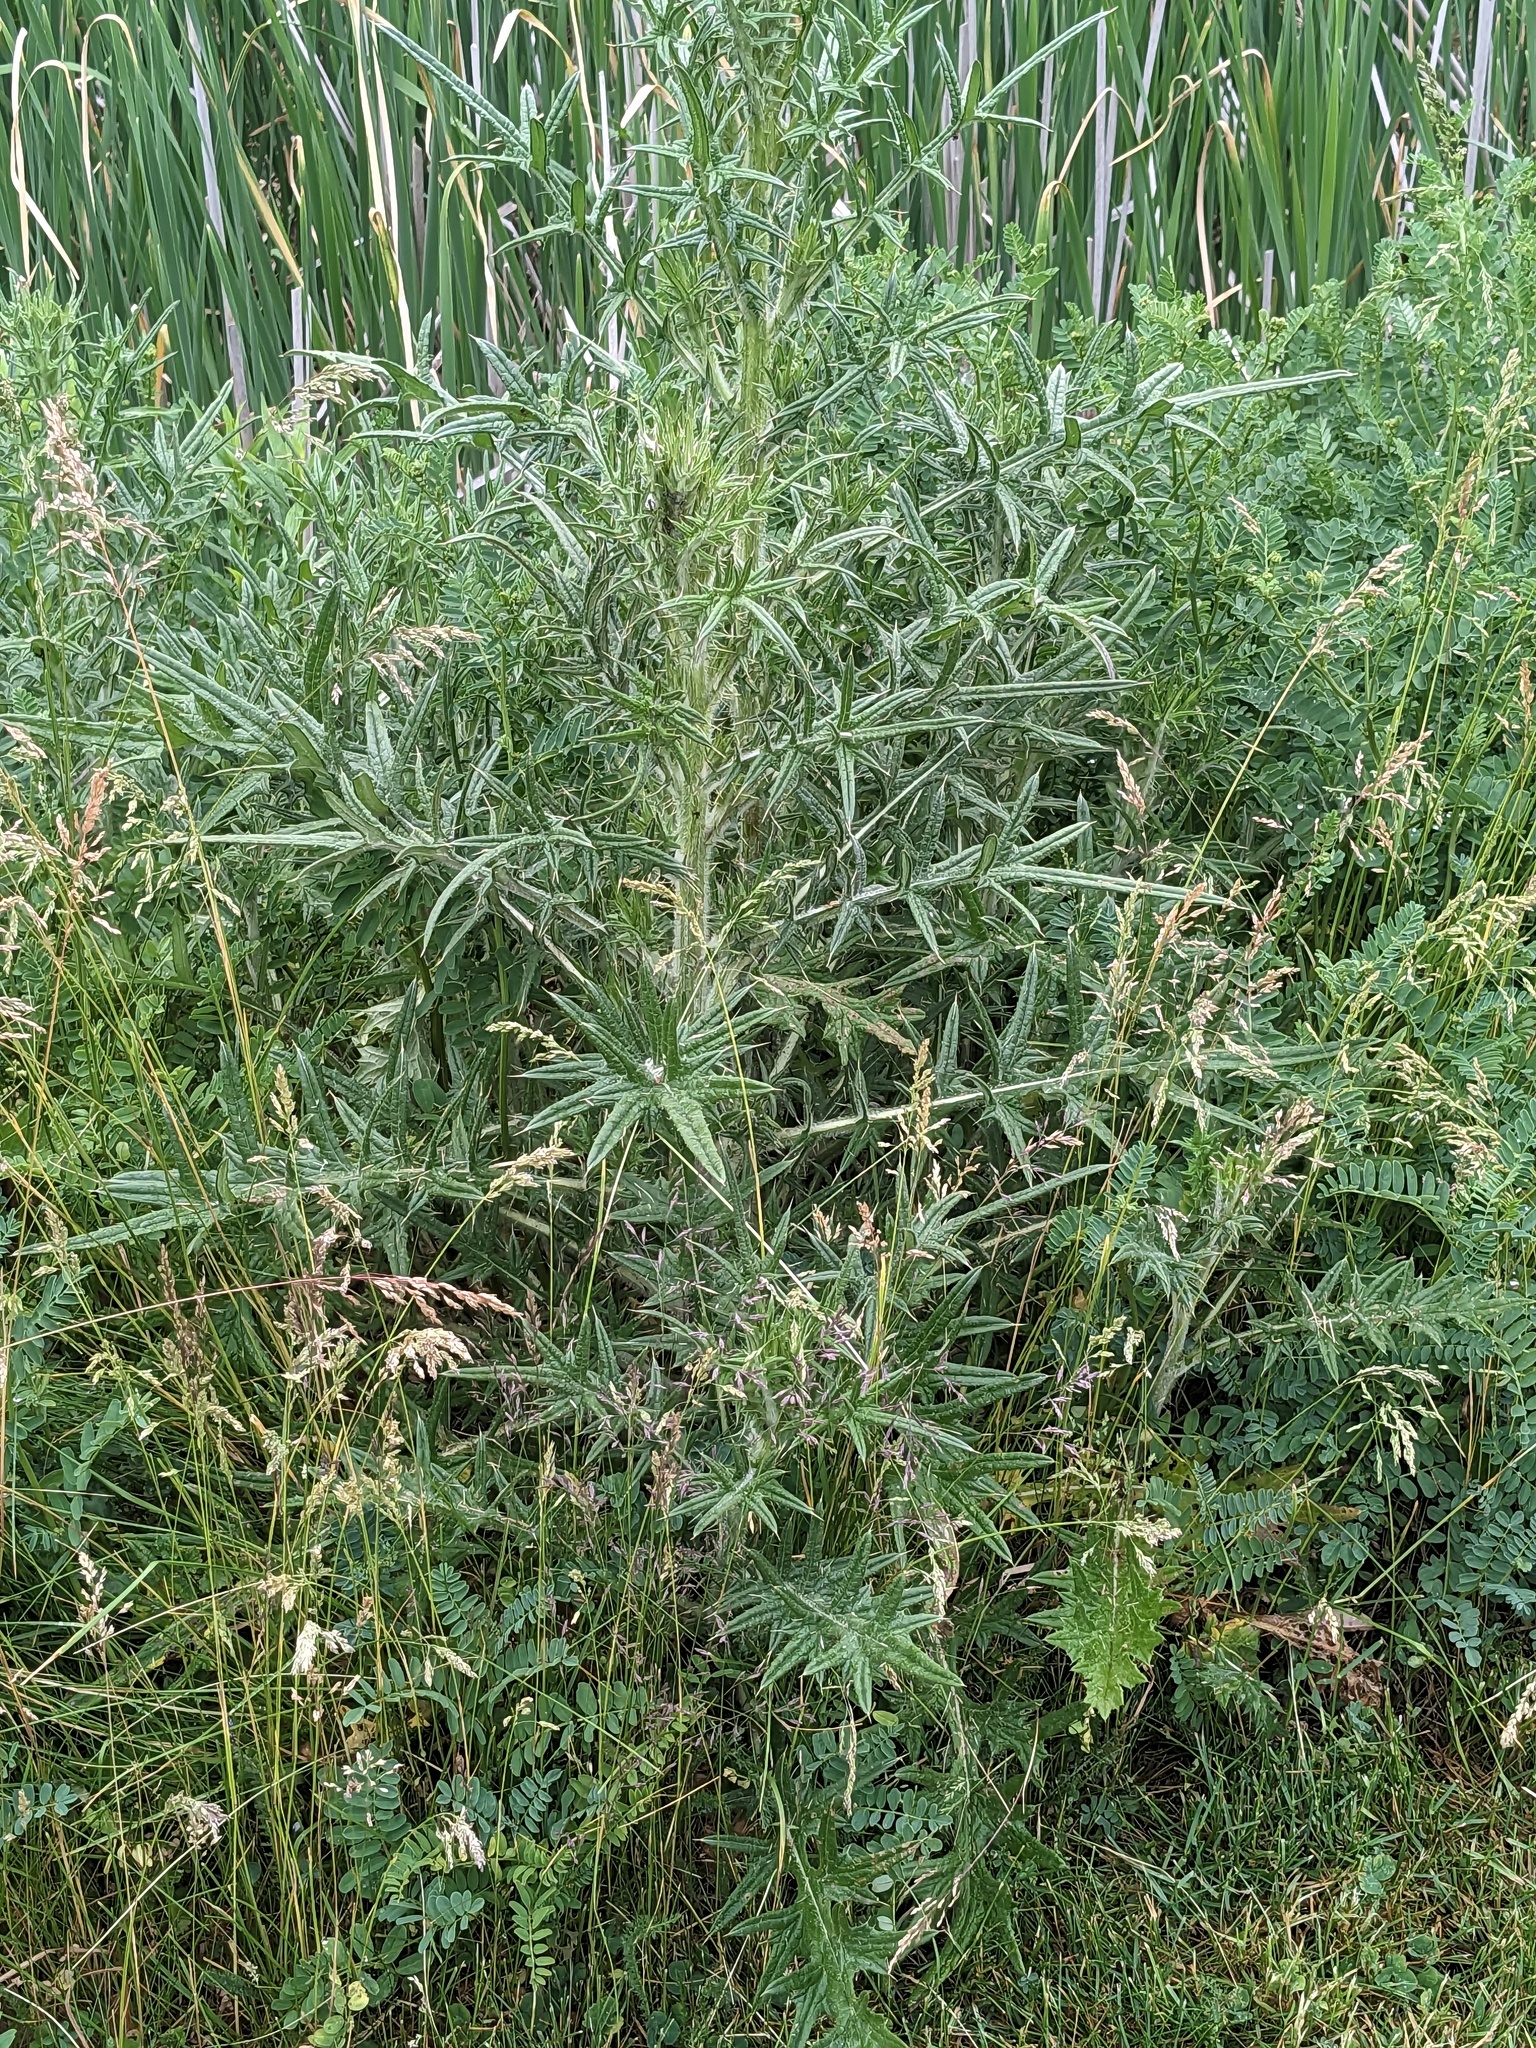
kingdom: Plantae
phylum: Tracheophyta
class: Magnoliopsida
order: Asterales
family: Asteraceae
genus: Cirsium
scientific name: Cirsium vulgare
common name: Bull thistle
